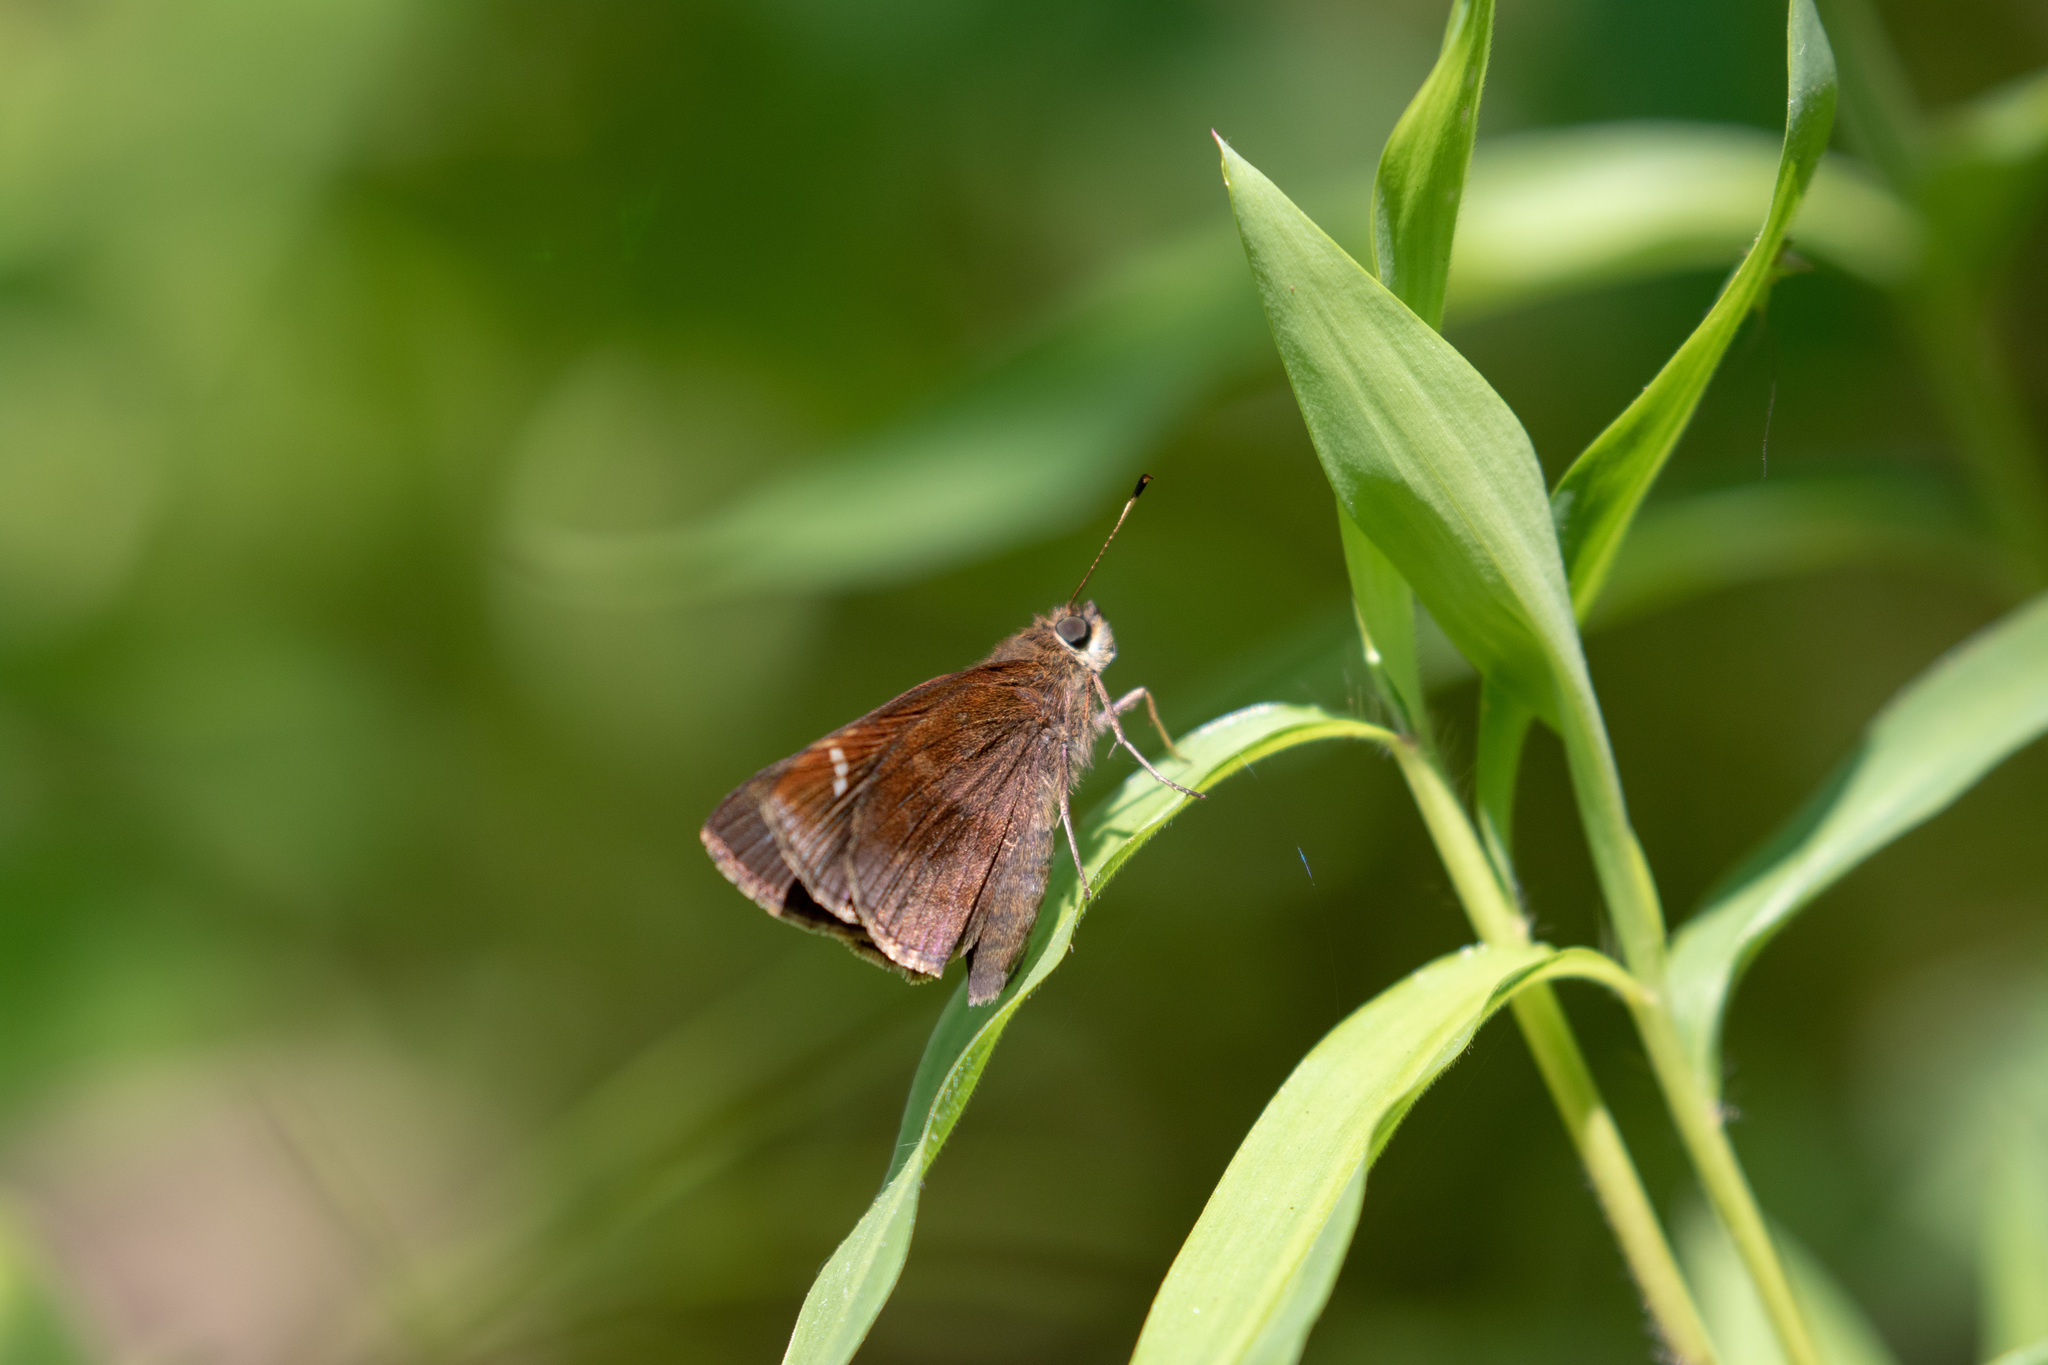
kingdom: Animalia
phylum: Arthropoda
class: Insecta
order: Lepidoptera
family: Hesperiidae
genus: Lerema
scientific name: Lerema accius
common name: Clouded skipper
